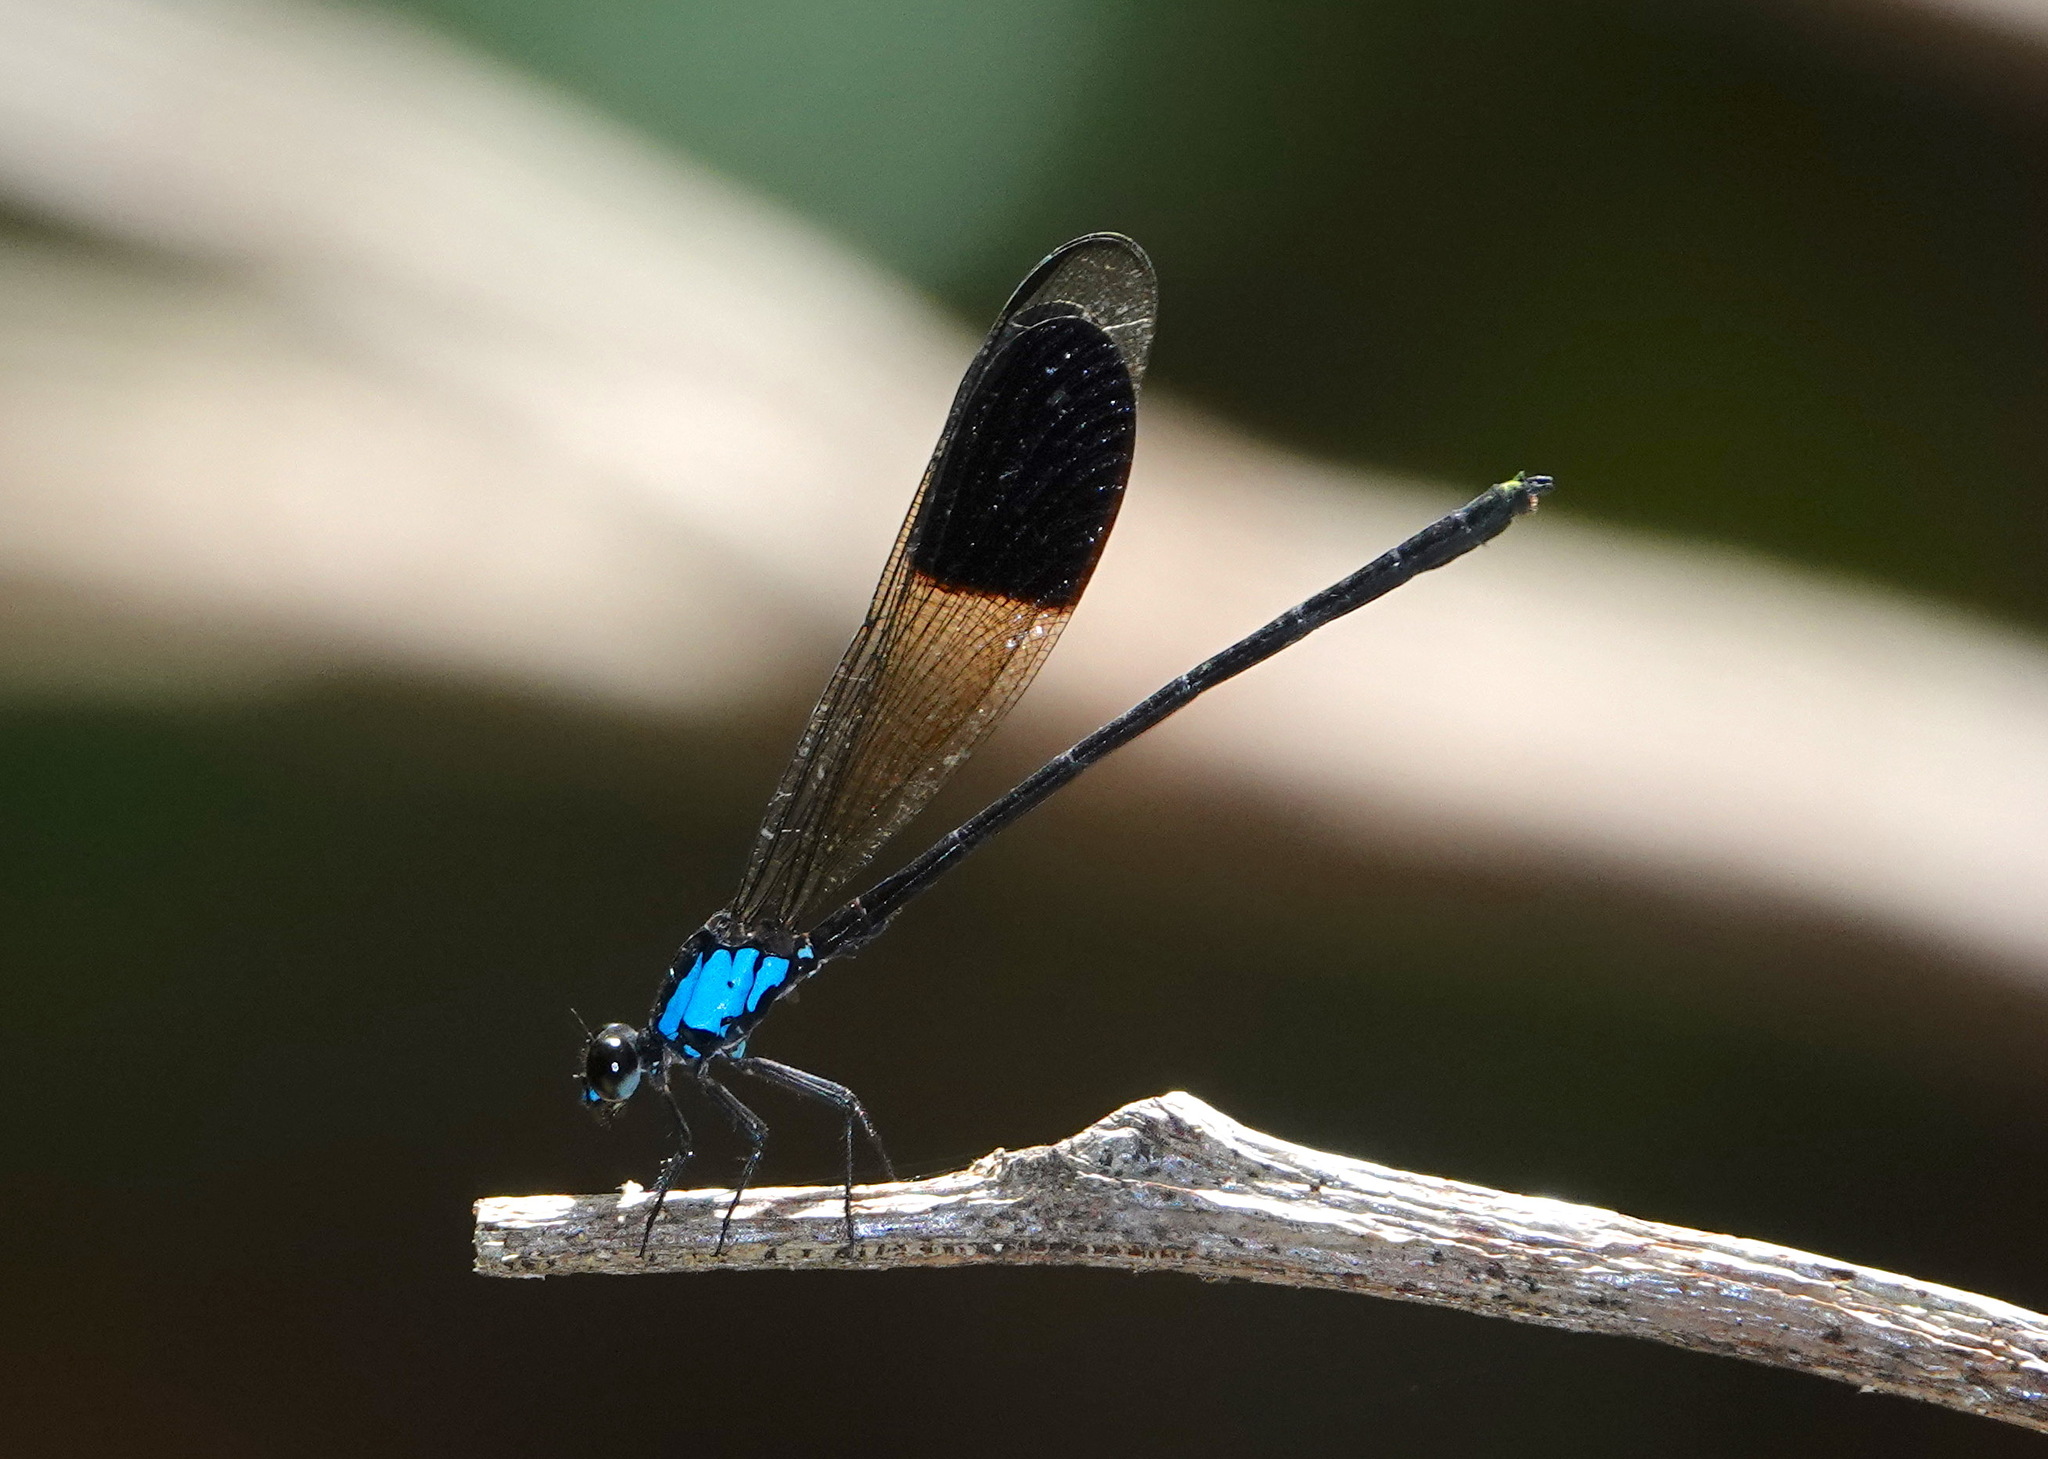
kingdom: Animalia
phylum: Arthropoda
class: Insecta
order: Odonata
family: Euphaeidae
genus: Euphaea
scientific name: Euphaea impar
